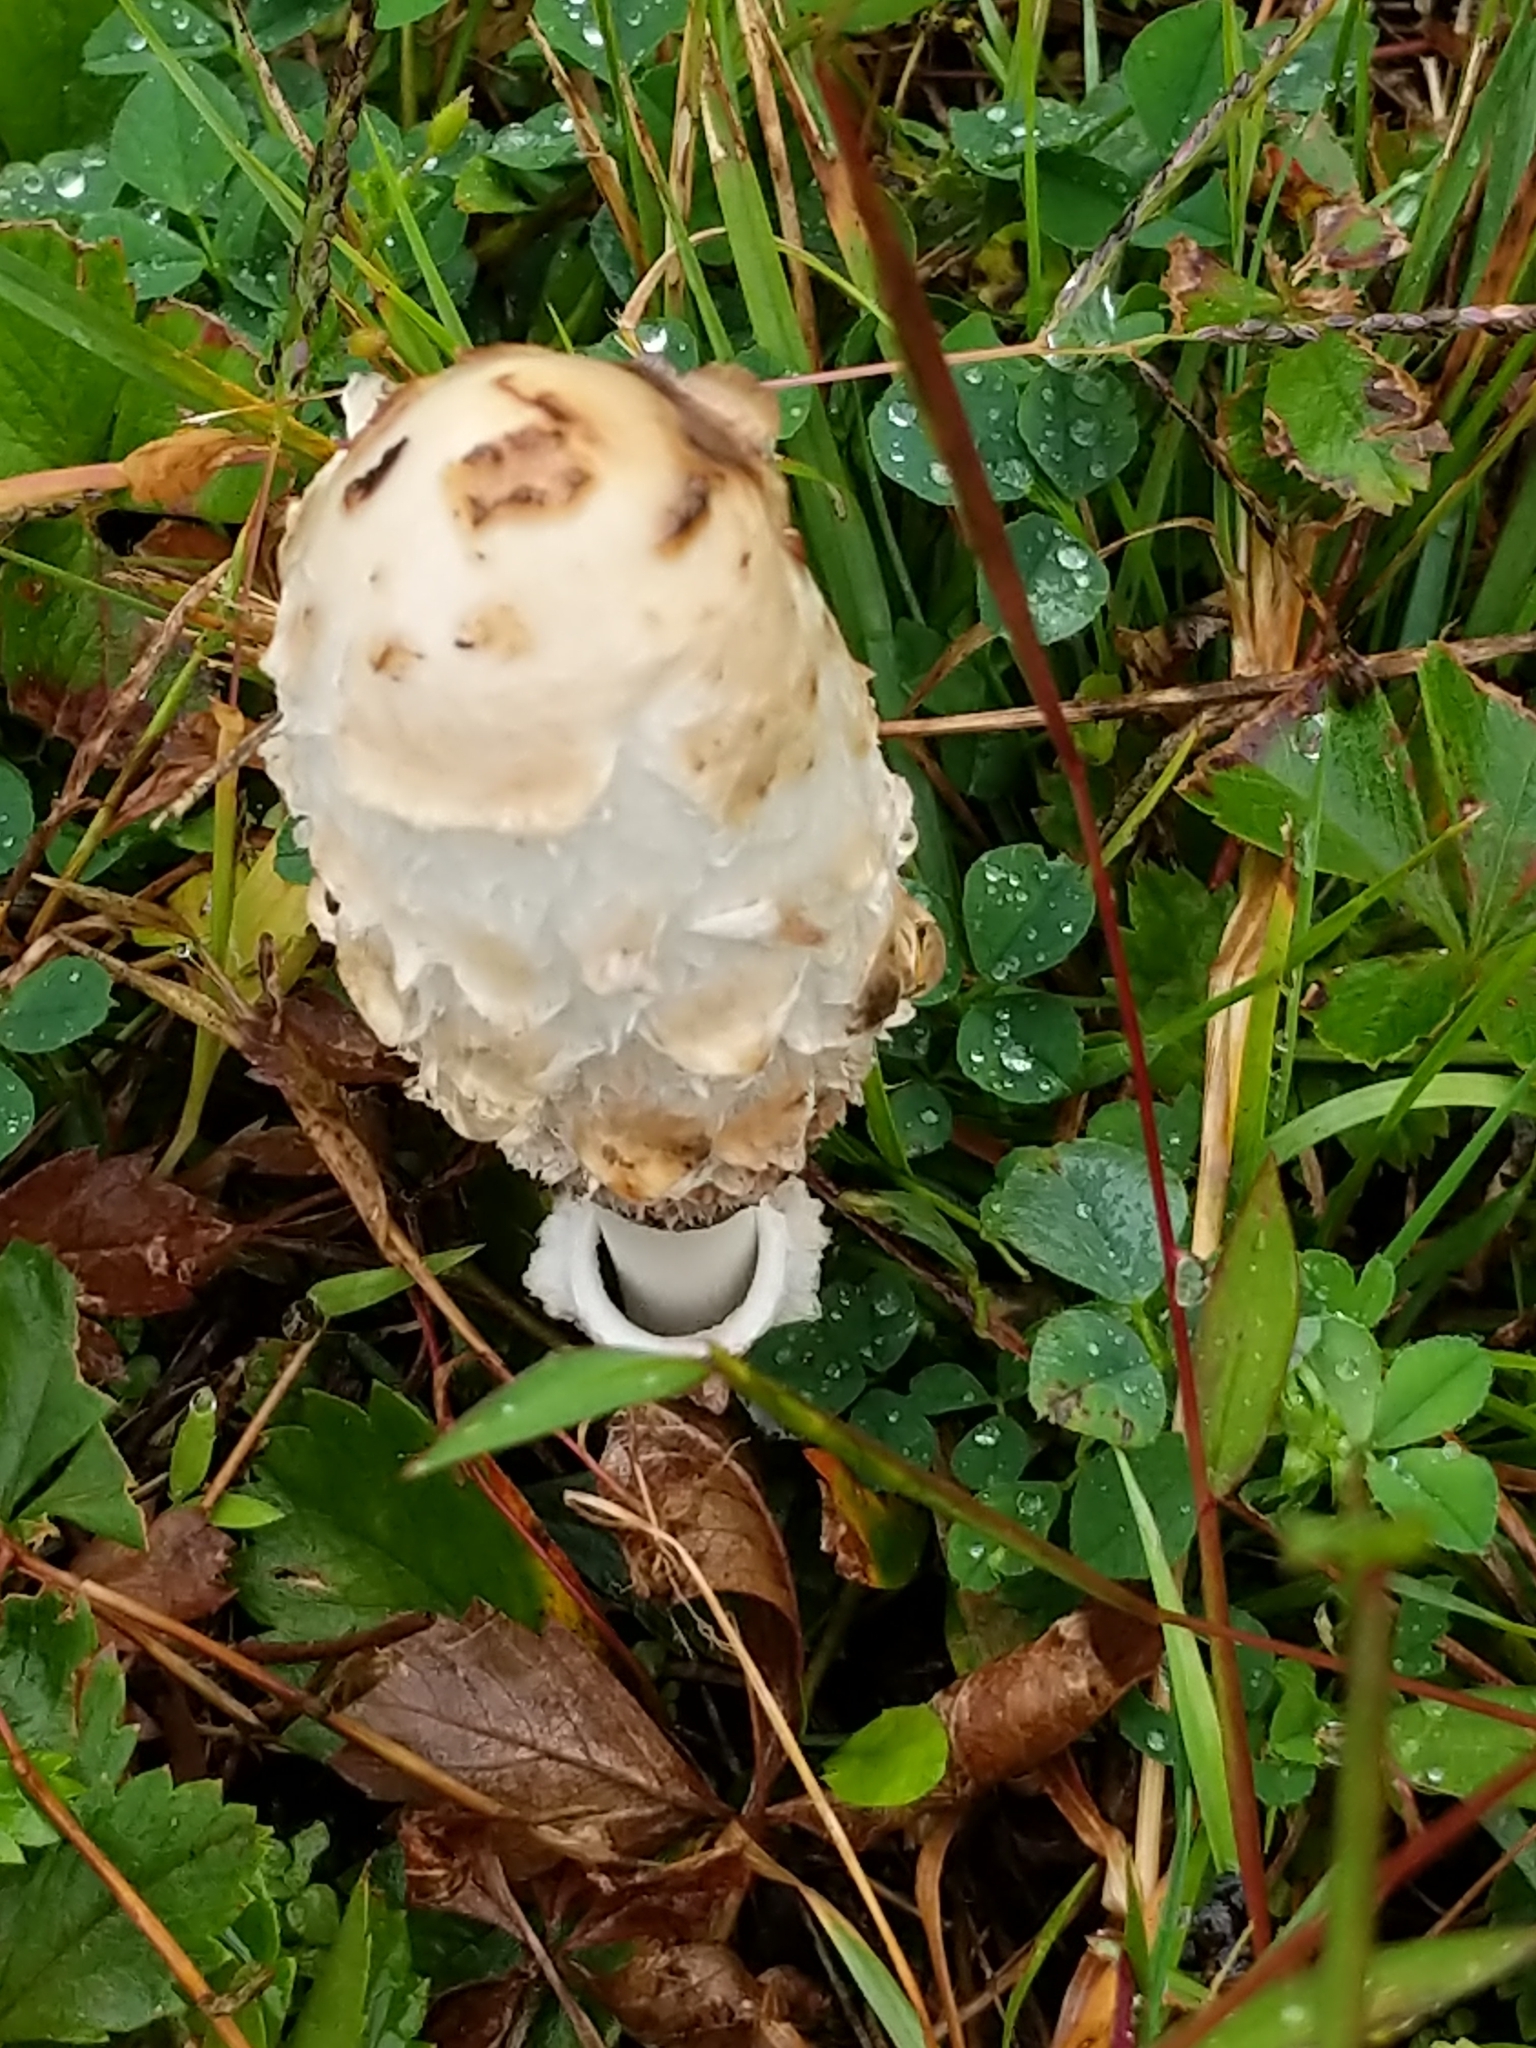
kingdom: Fungi
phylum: Basidiomycota
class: Agaricomycetes
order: Agaricales
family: Agaricaceae
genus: Coprinus
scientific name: Coprinus comatus
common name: Lawyer's wig
